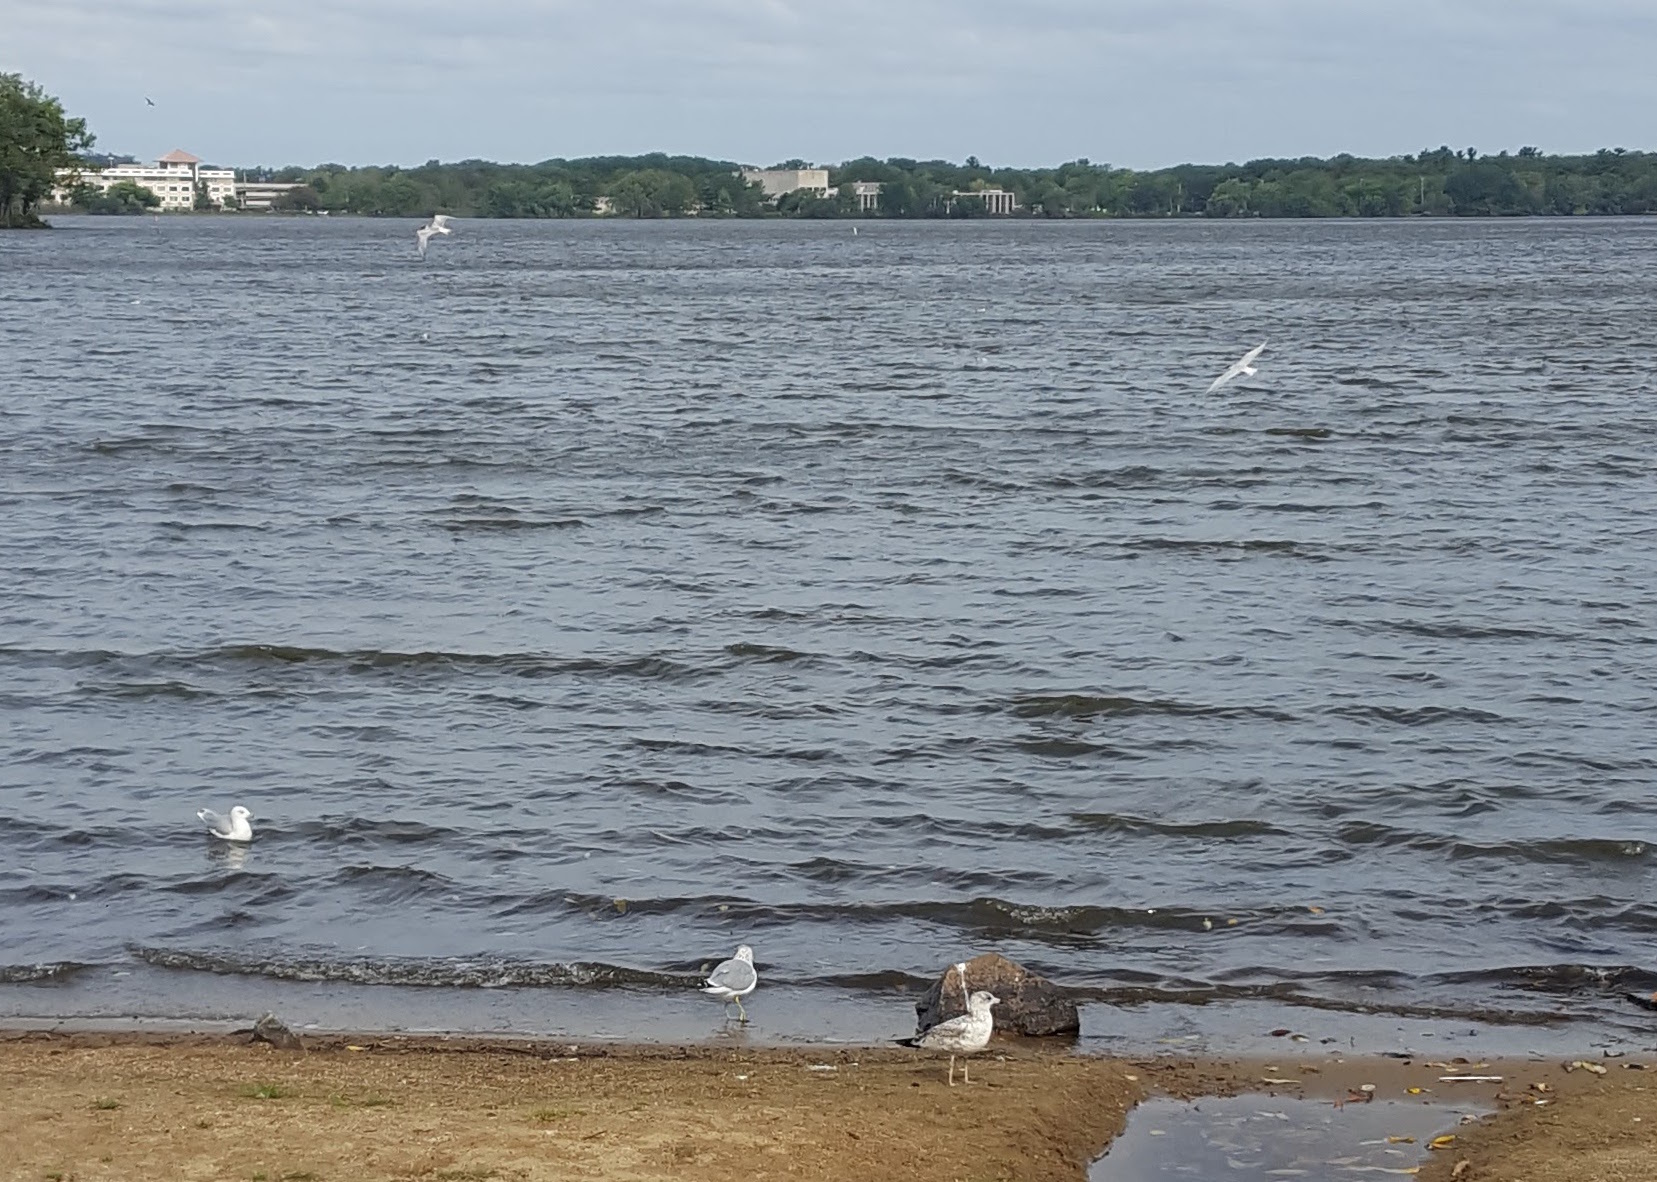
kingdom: Animalia
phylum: Chordata
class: Aves
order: Charadriiformes
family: Laridae
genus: Hydroprogne
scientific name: Hydroprogne caspia
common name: Caspian tern
